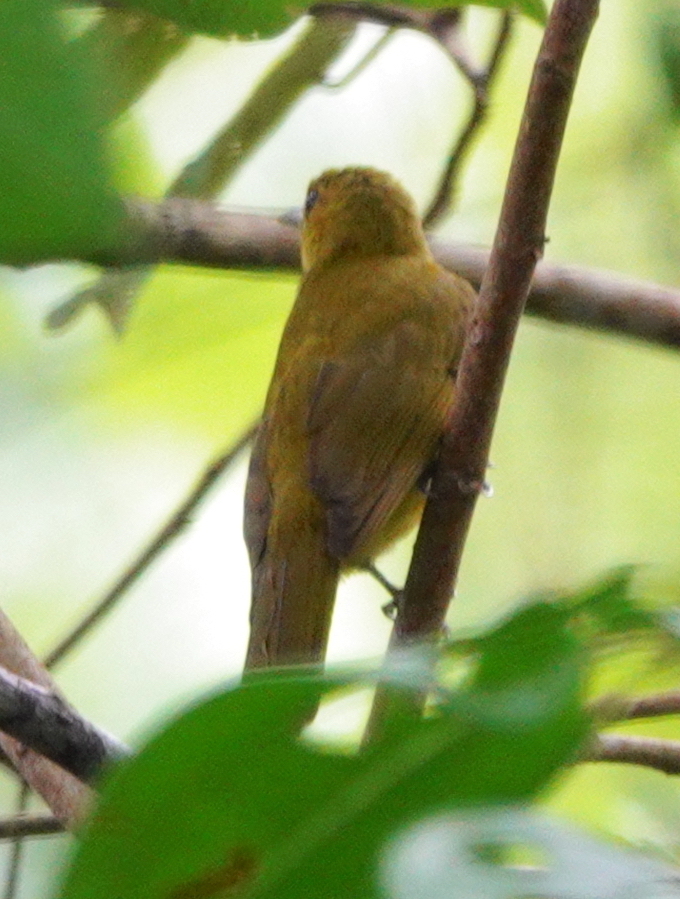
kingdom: Animalia
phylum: Chordata
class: Aves
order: Passeriformes
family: Pycnonotidae
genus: Thapsinillas
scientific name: Thapsinillas longirostris
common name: Northern golden bulbul
